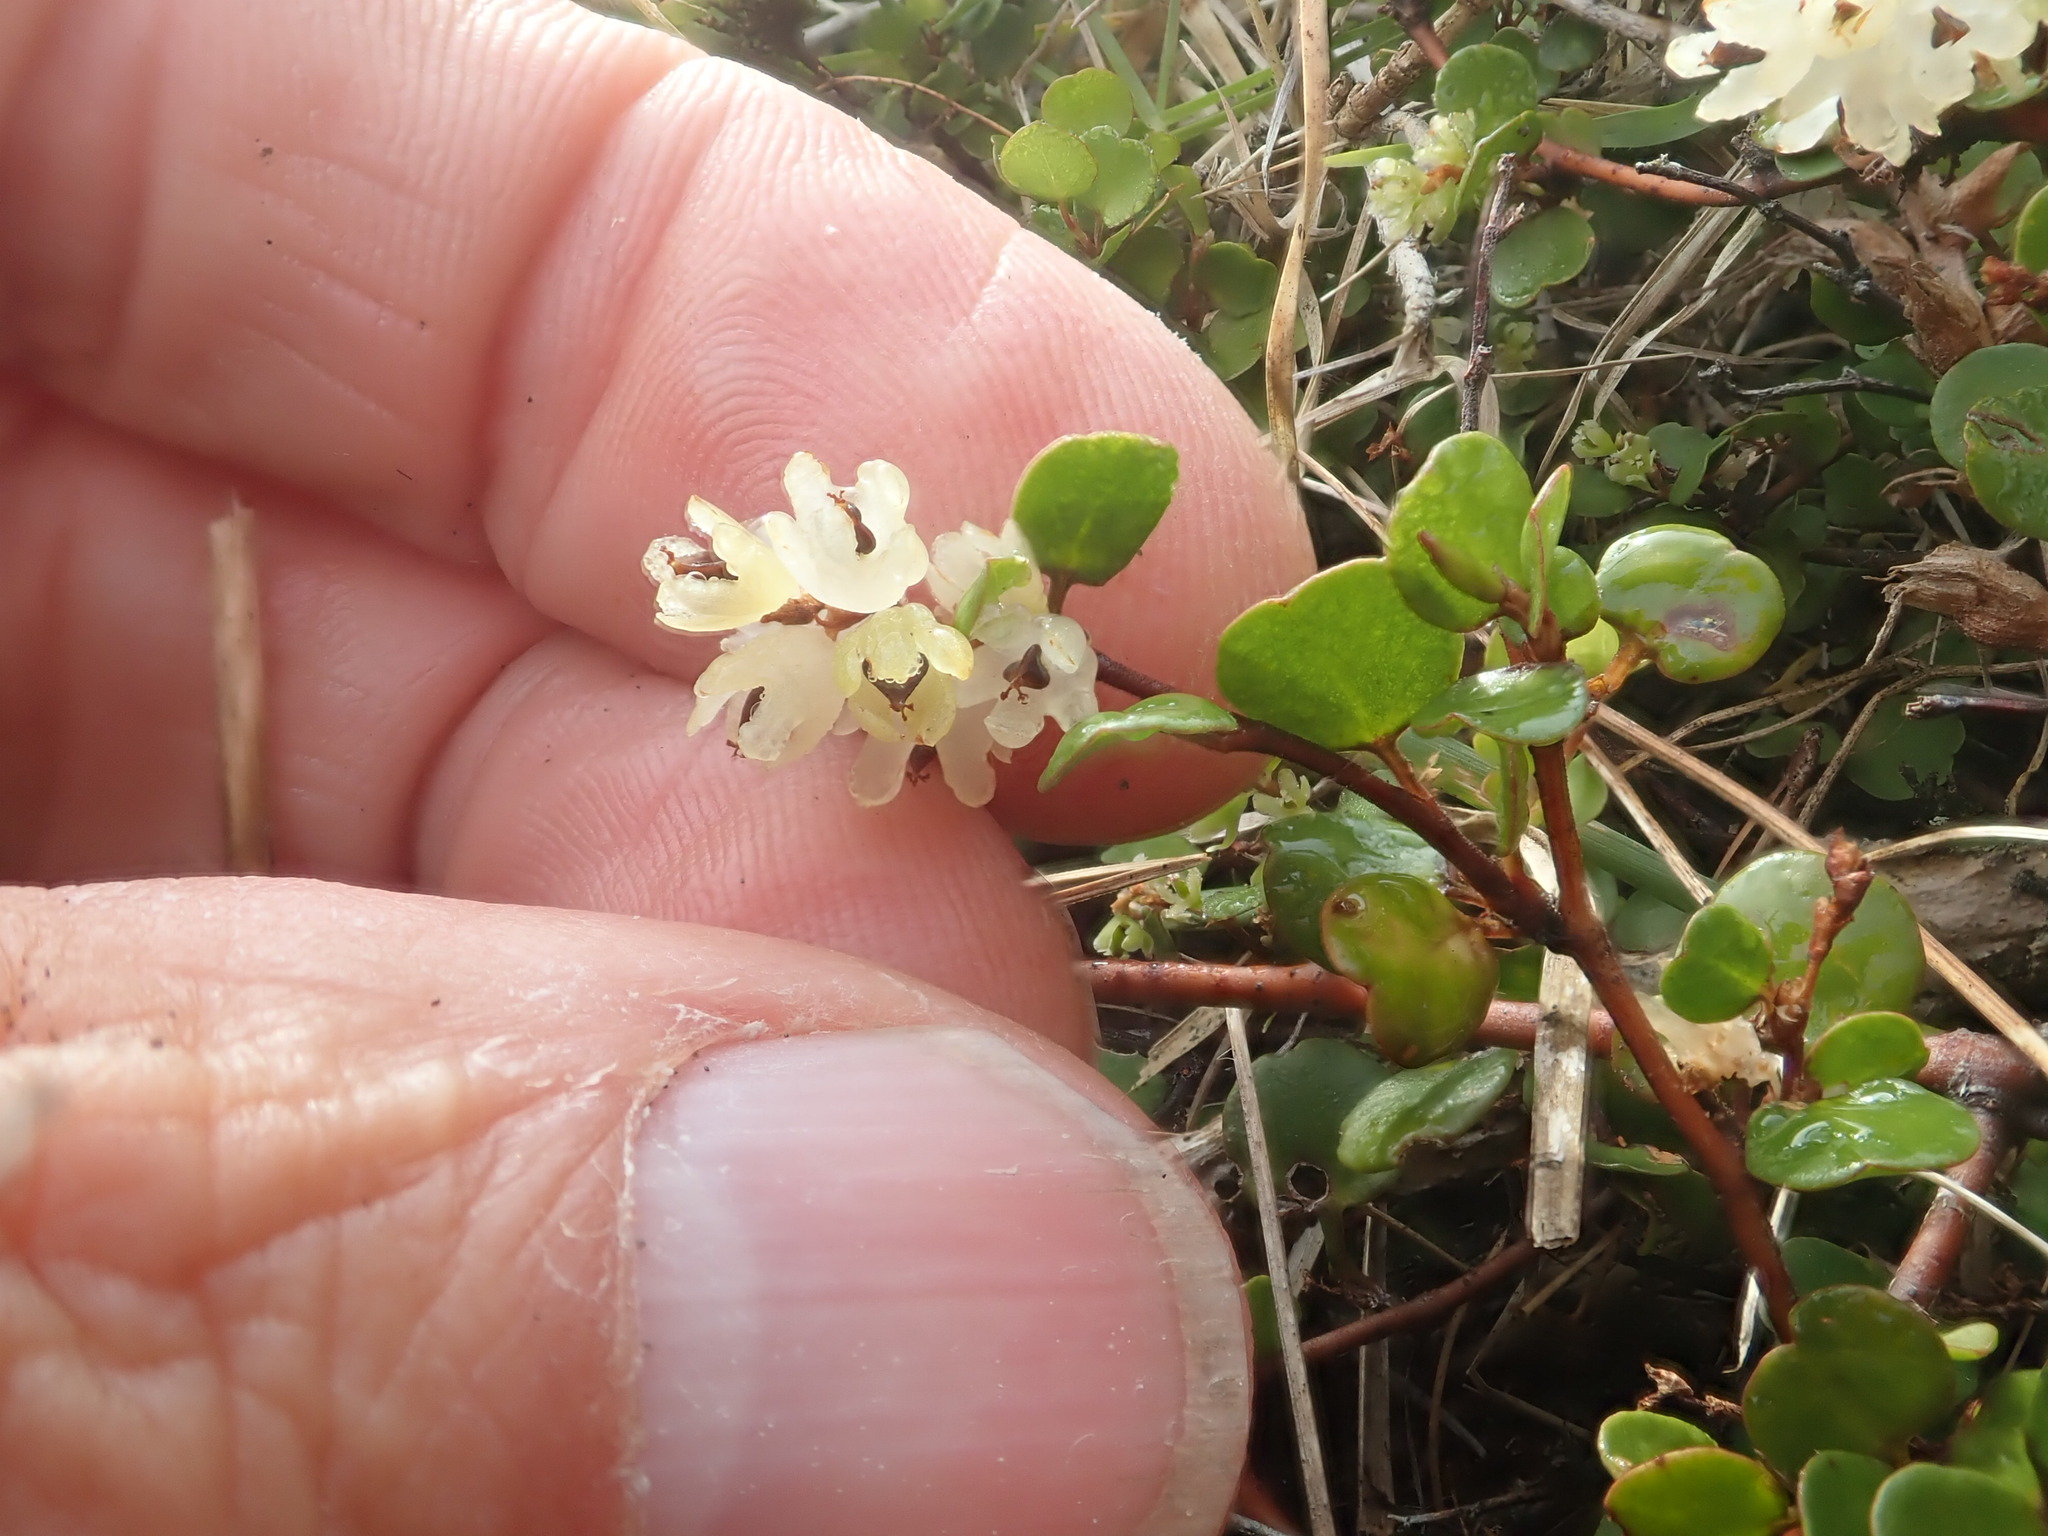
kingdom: Plantae
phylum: Tracheophyta
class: Magnoliopsida
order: Caryophyllales
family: Polygonaceae
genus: Muehlenbeckia
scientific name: Muehlenbeckia complexa
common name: Wireplant
